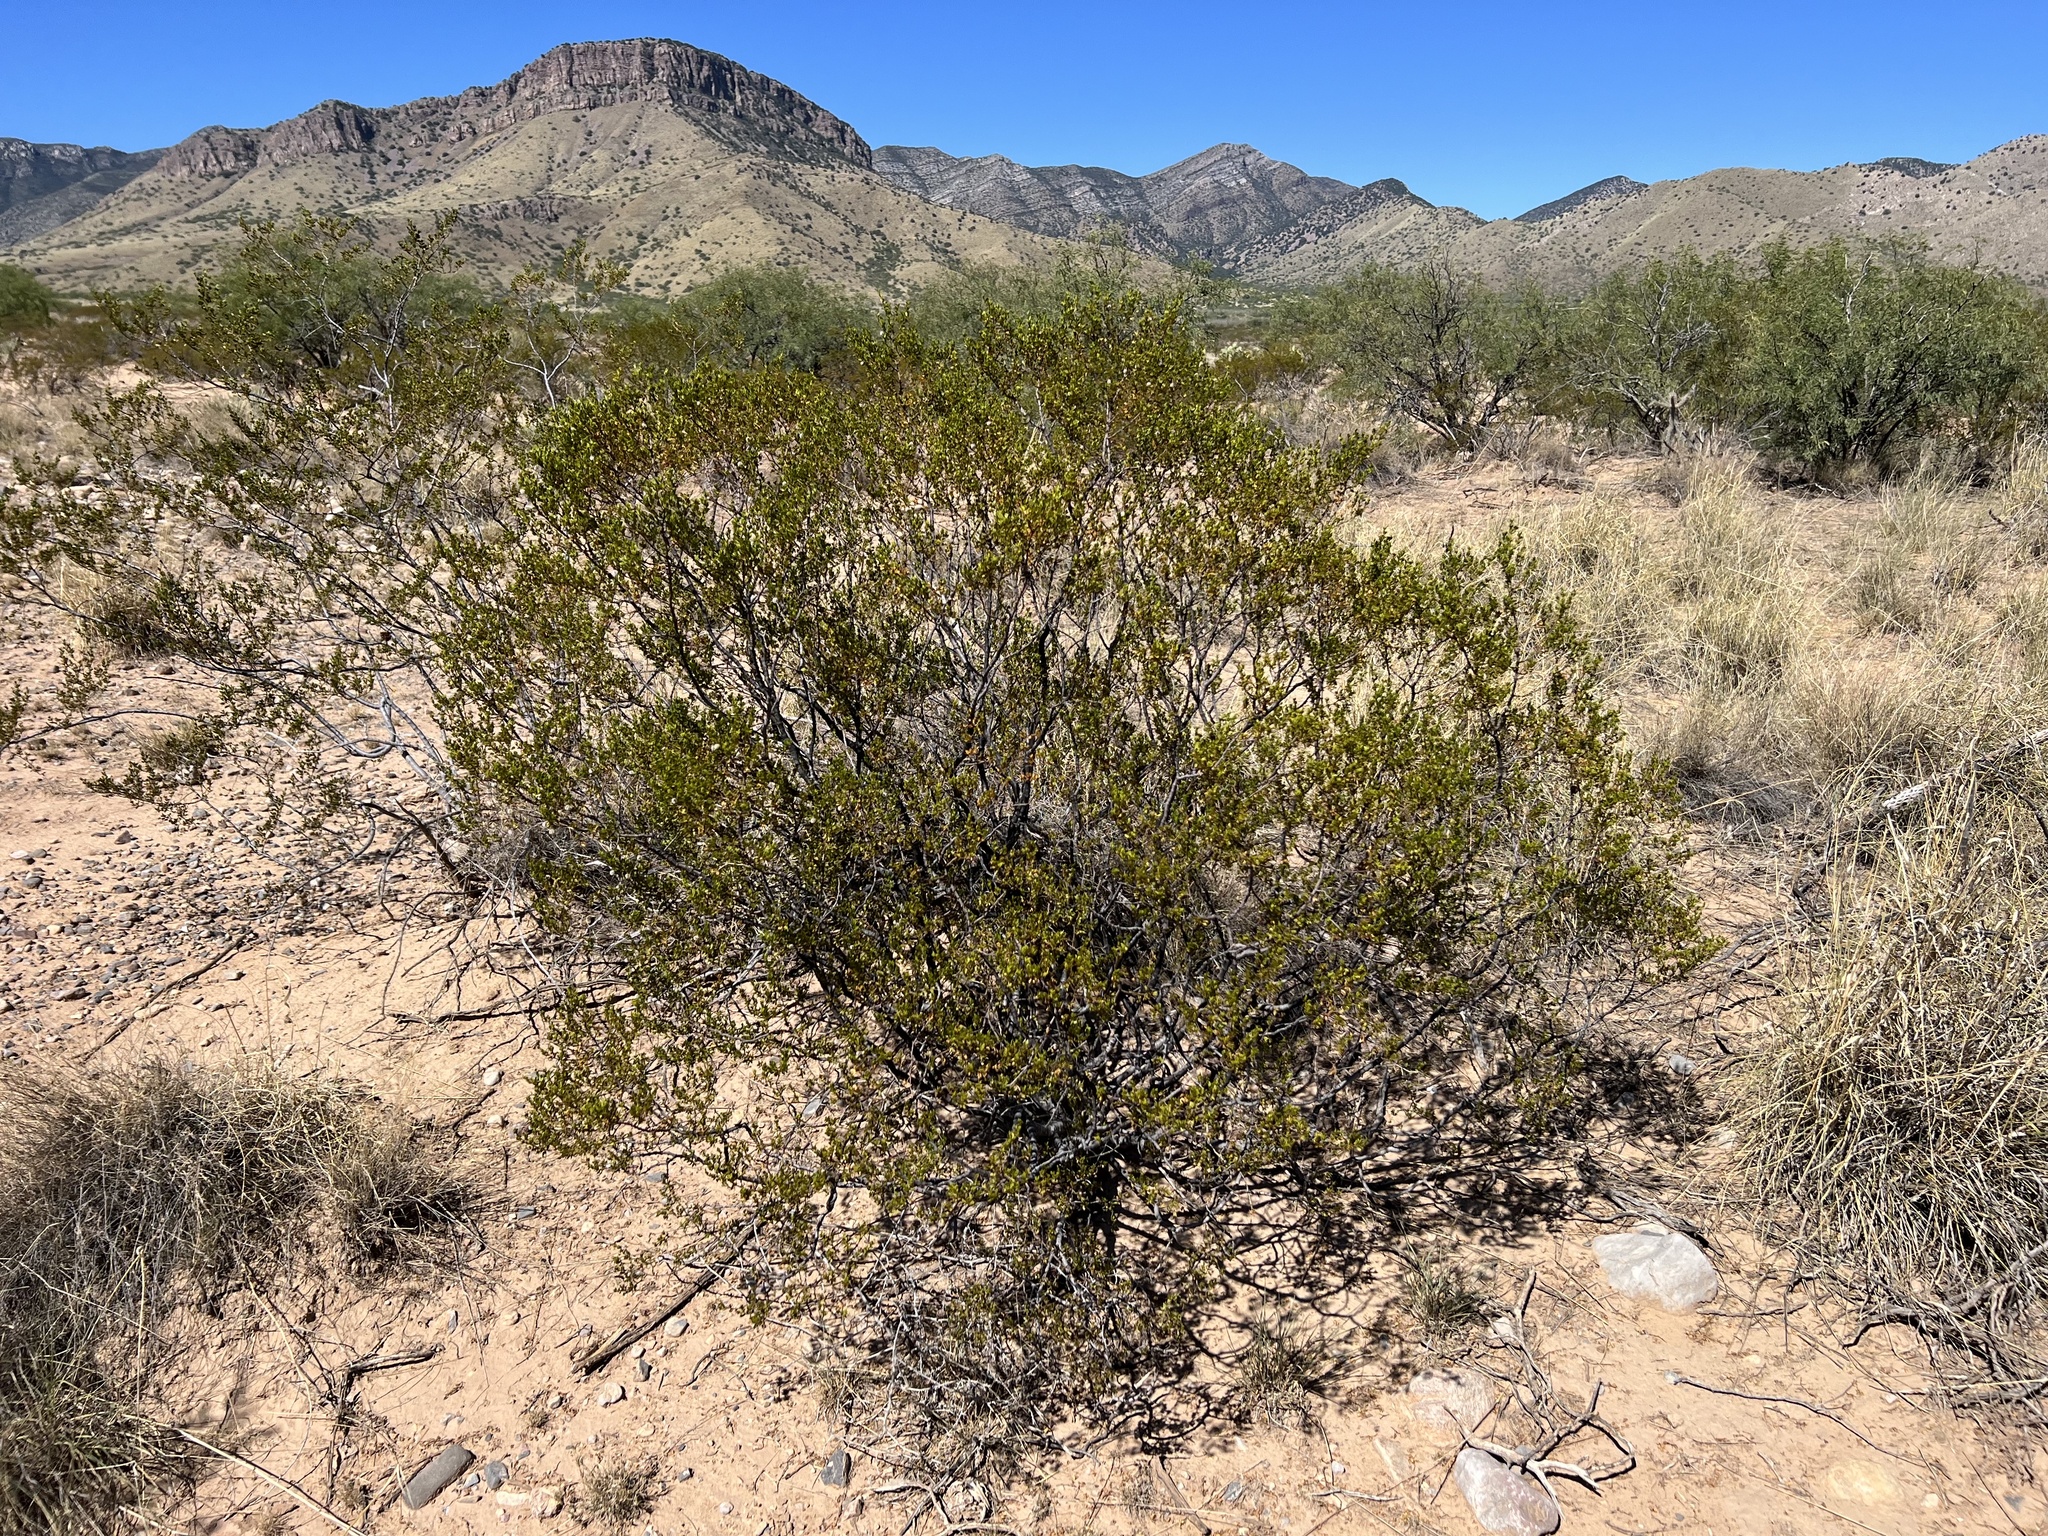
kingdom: Plantae
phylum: Tracheophyta
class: Magnoliopsida
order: Zygophyllales
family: Zygophyllaceae
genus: Larrea
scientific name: Larrea tridentata
